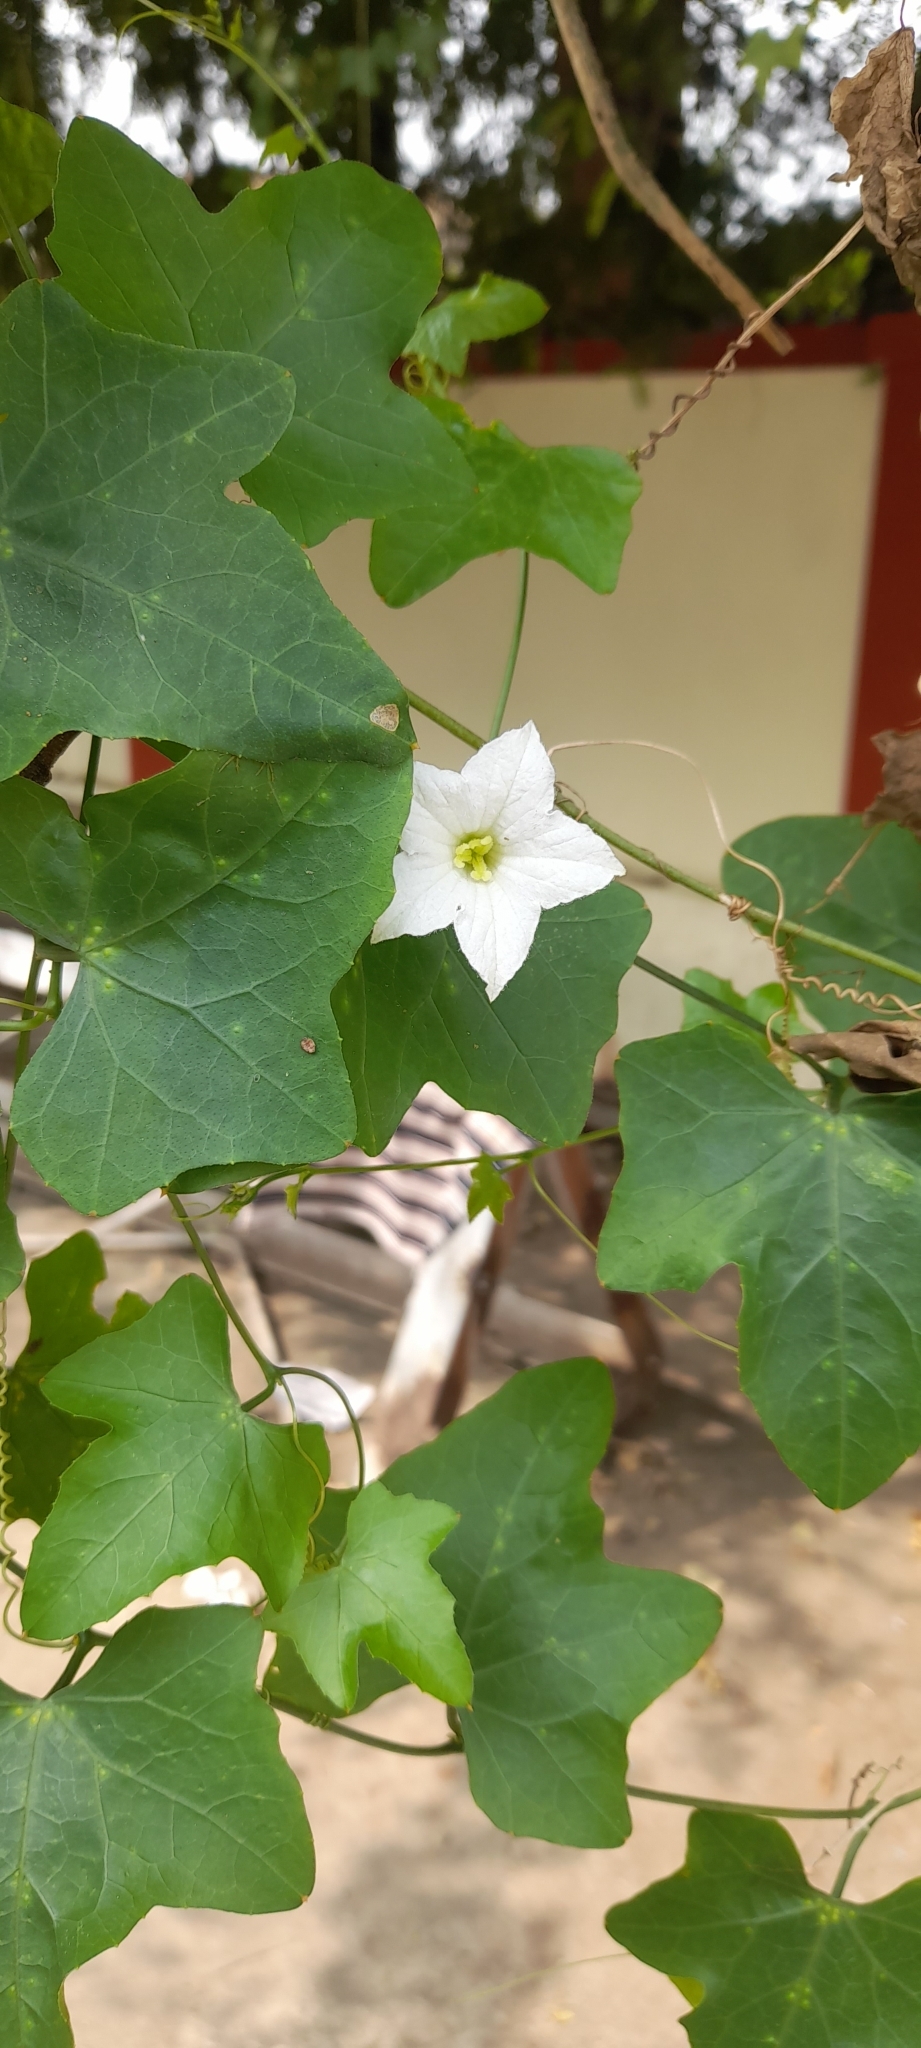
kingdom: Plantae
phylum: Tracheophyta
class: Magnoliopsida
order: Cucurbitales
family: Cucurbitaceae
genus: Coccinia
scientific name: Coccinia grandis
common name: Ivy gourd
